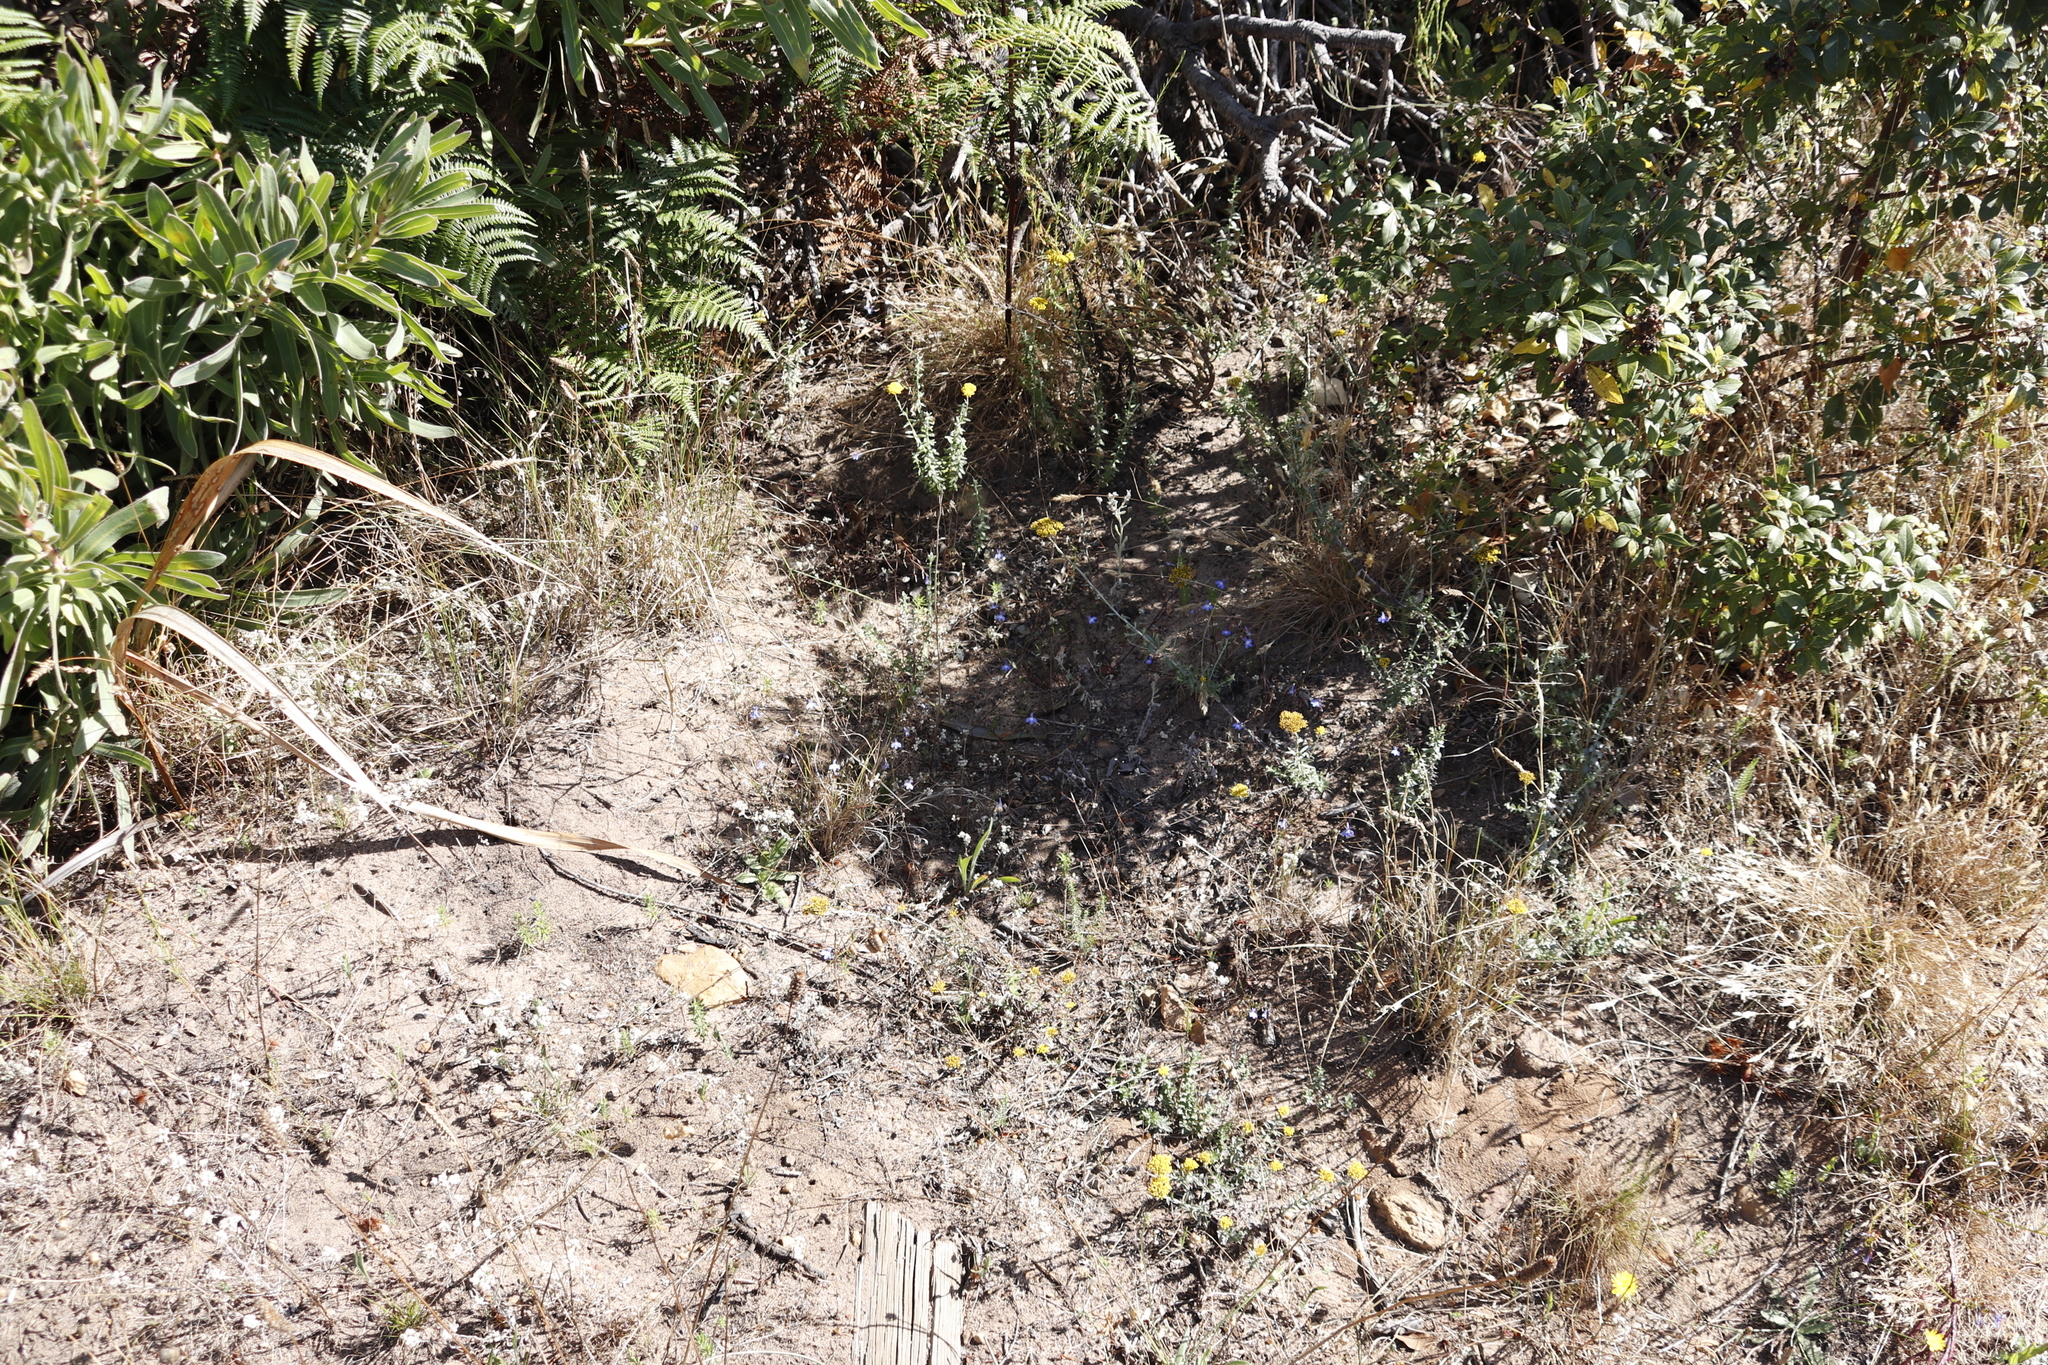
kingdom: Plantae
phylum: Tracheophyta
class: Magnoliopsida
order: Asterales
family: Campanulaceae
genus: Lobelia
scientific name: Lobelia erinus
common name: Edging lobelia
